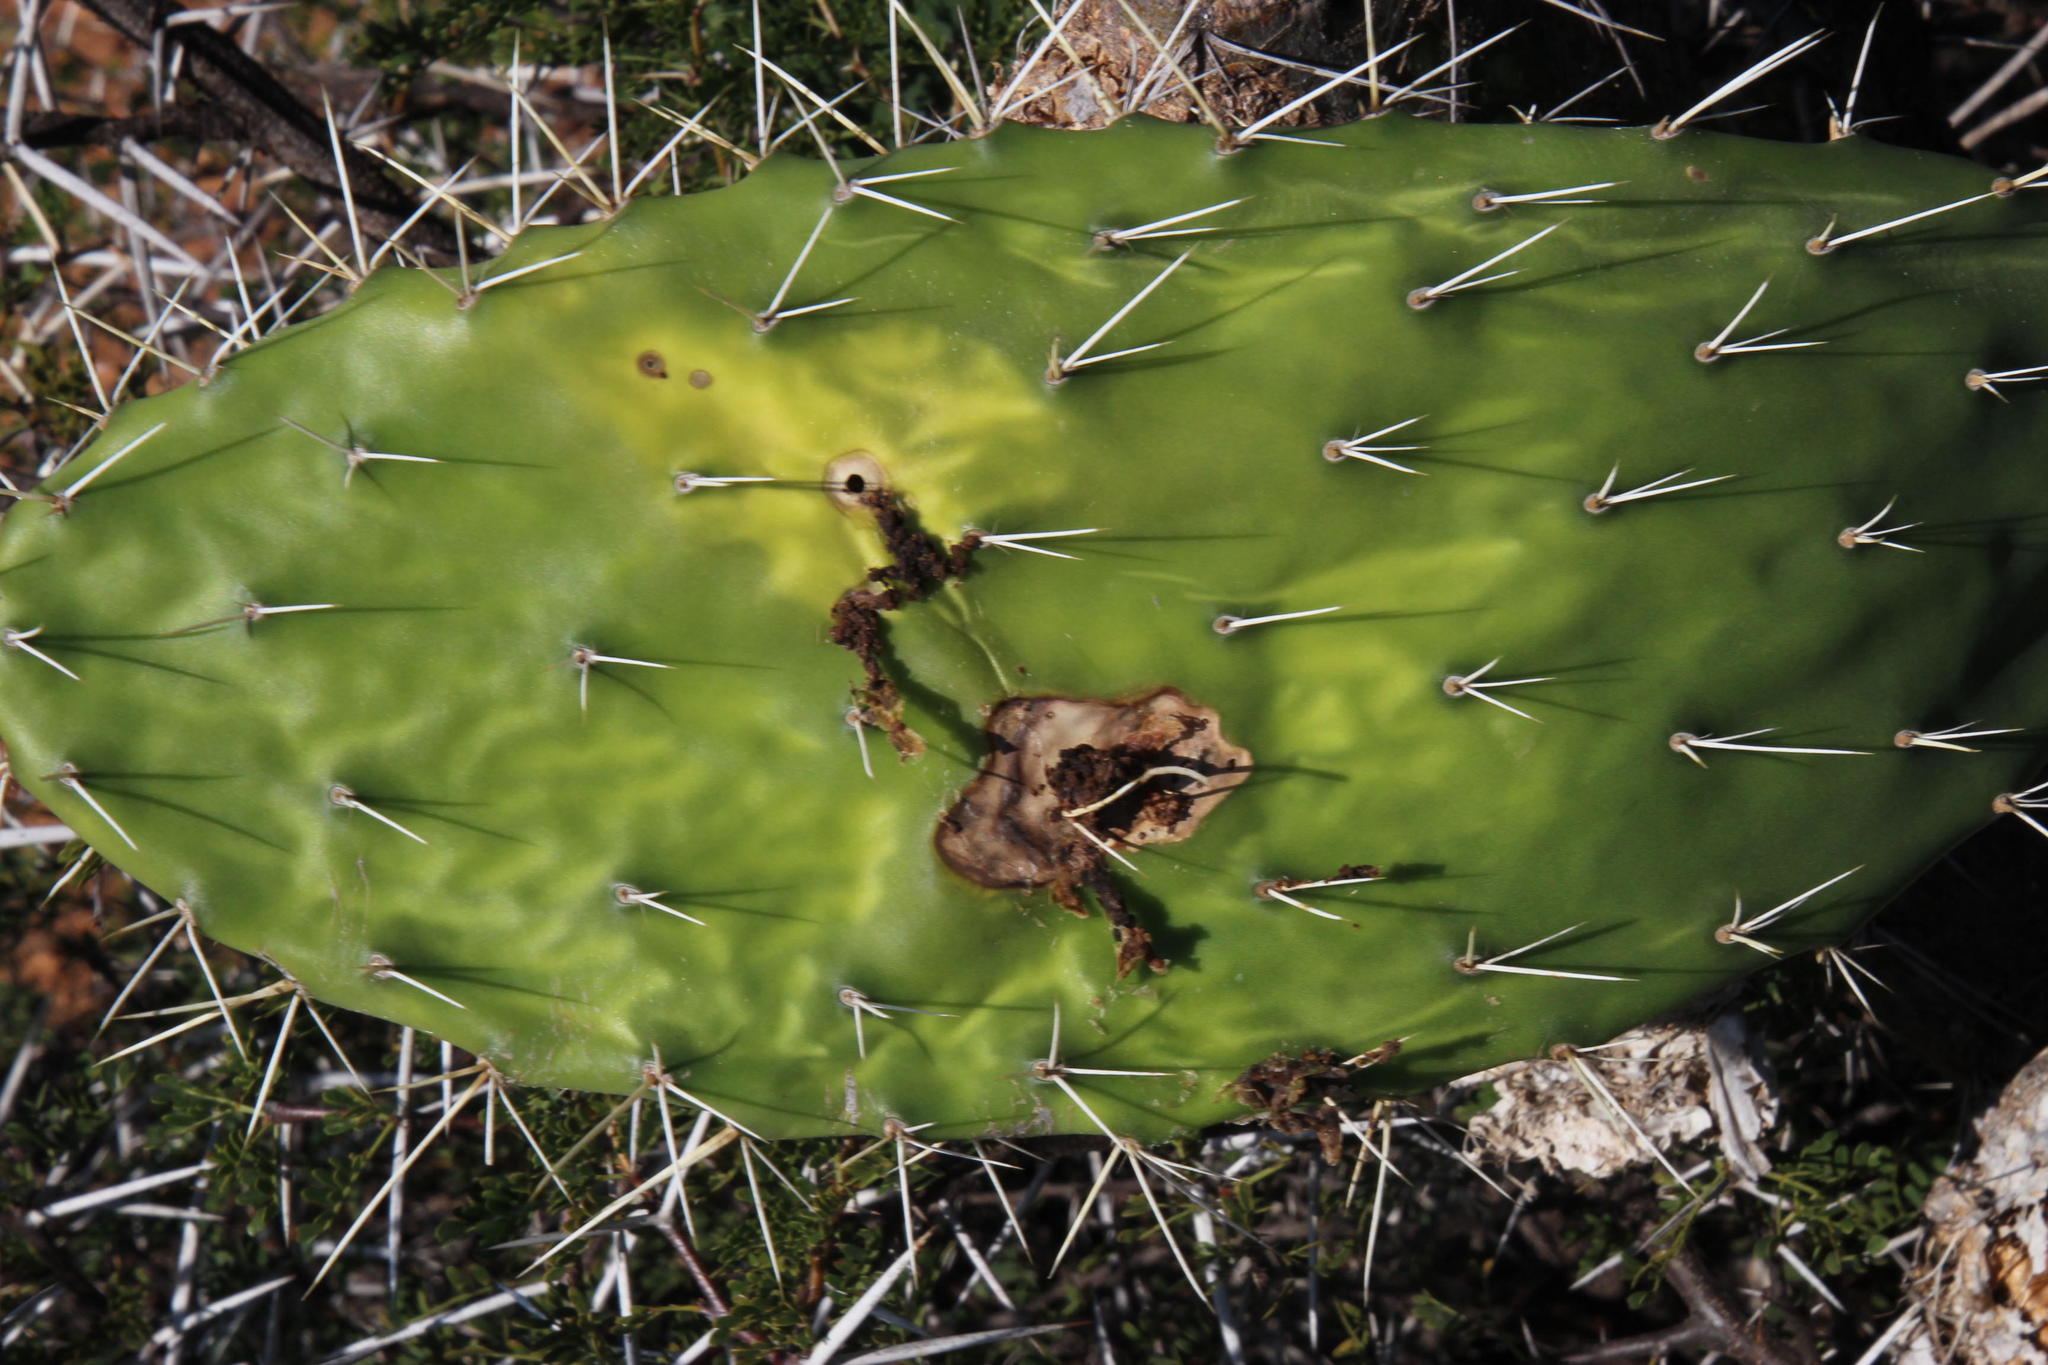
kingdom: Plantae
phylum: Tracheophyta
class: Magnoliopsida
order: Caryophyllales
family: Cactaceae
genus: Opuntia
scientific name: Opuntia ficus-indica
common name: Barbary fig
